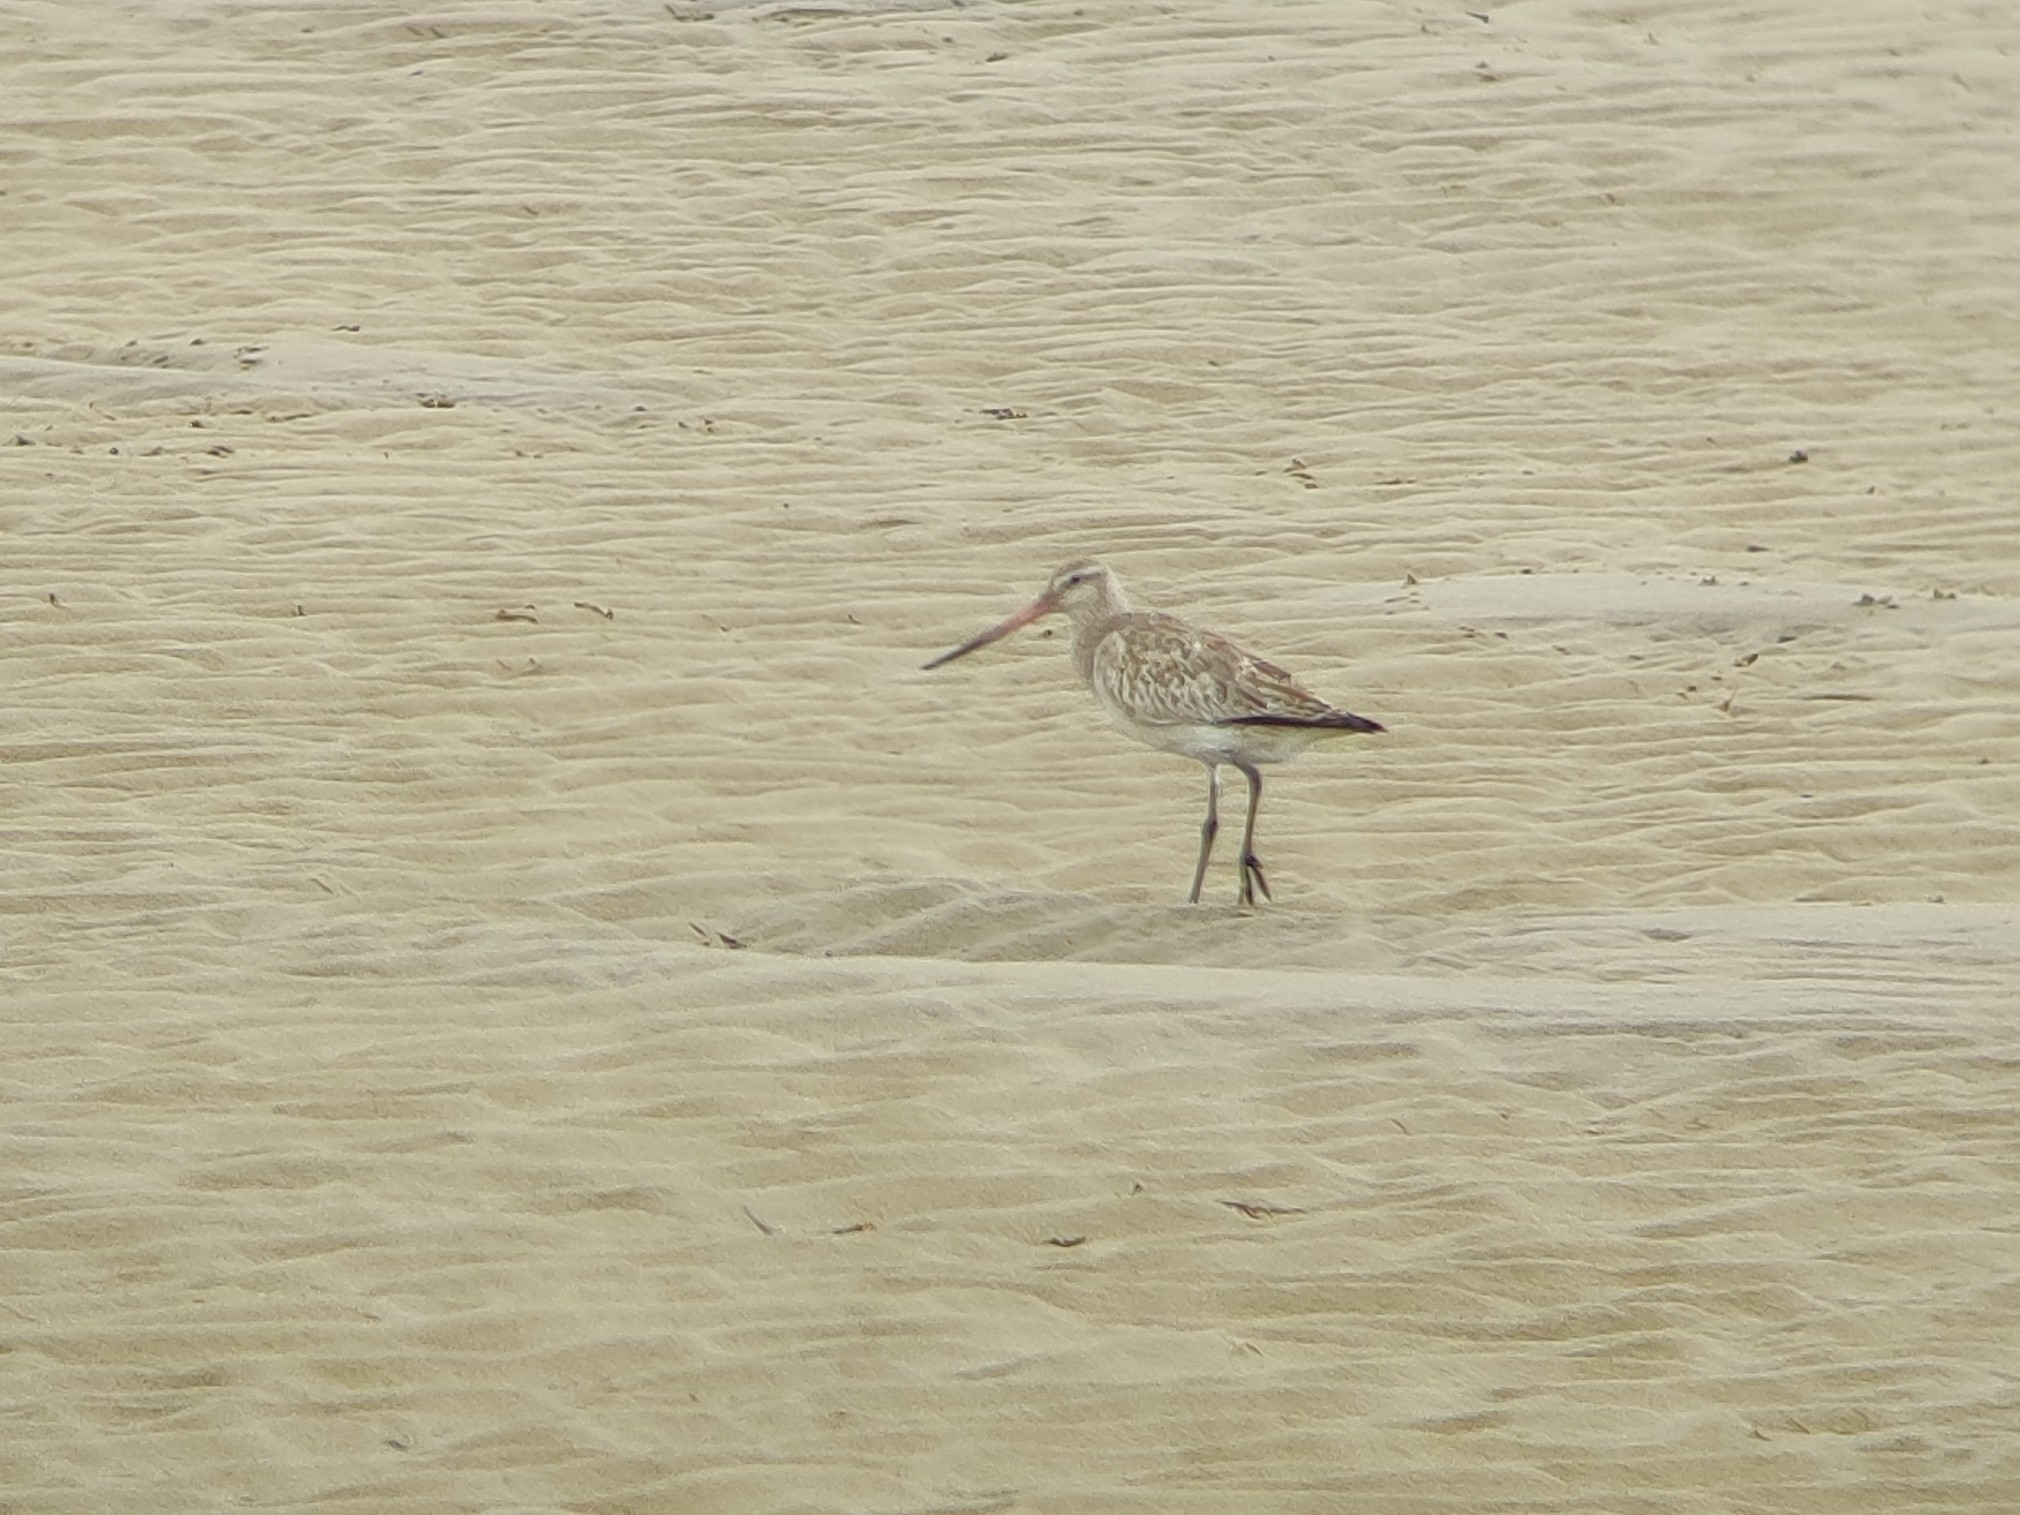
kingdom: Animalia
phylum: Chordata
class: Aves
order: Charadriiformes
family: Scolopacidae
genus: Limosa
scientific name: Limosa lapponica
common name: Bar-tailed godwit
